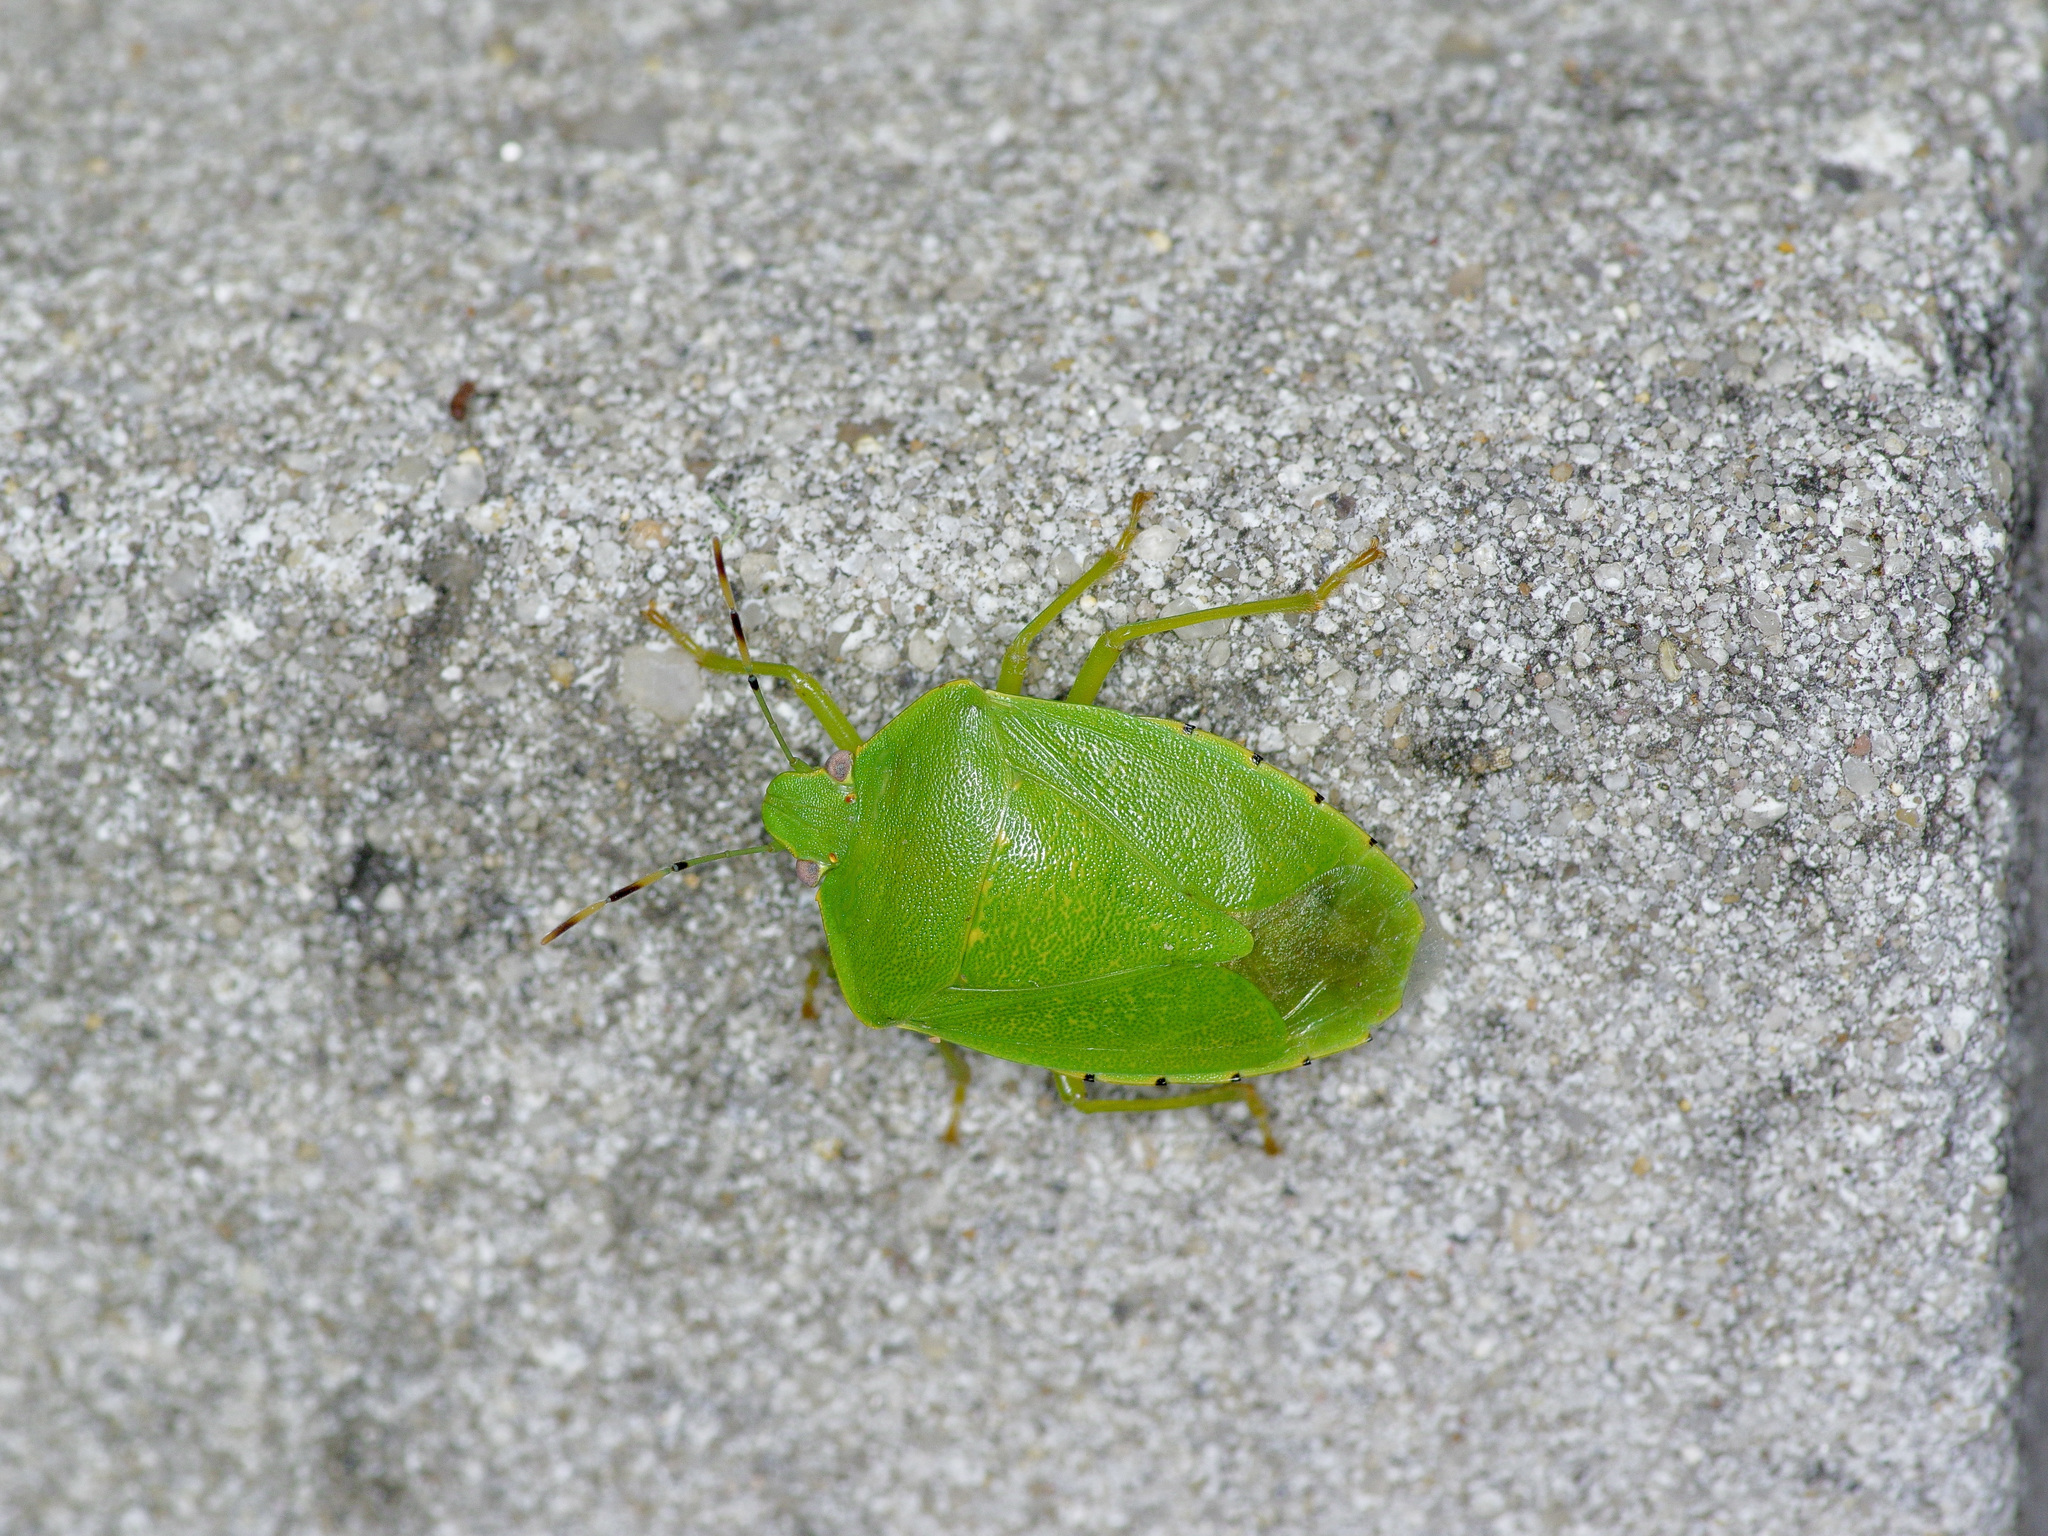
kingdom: Animalia
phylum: Arthropoda
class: Insecta
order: Hemiptera
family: Pentatomidae
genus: Chinavia
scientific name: Chinavia hilaris
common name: Green stink bug
